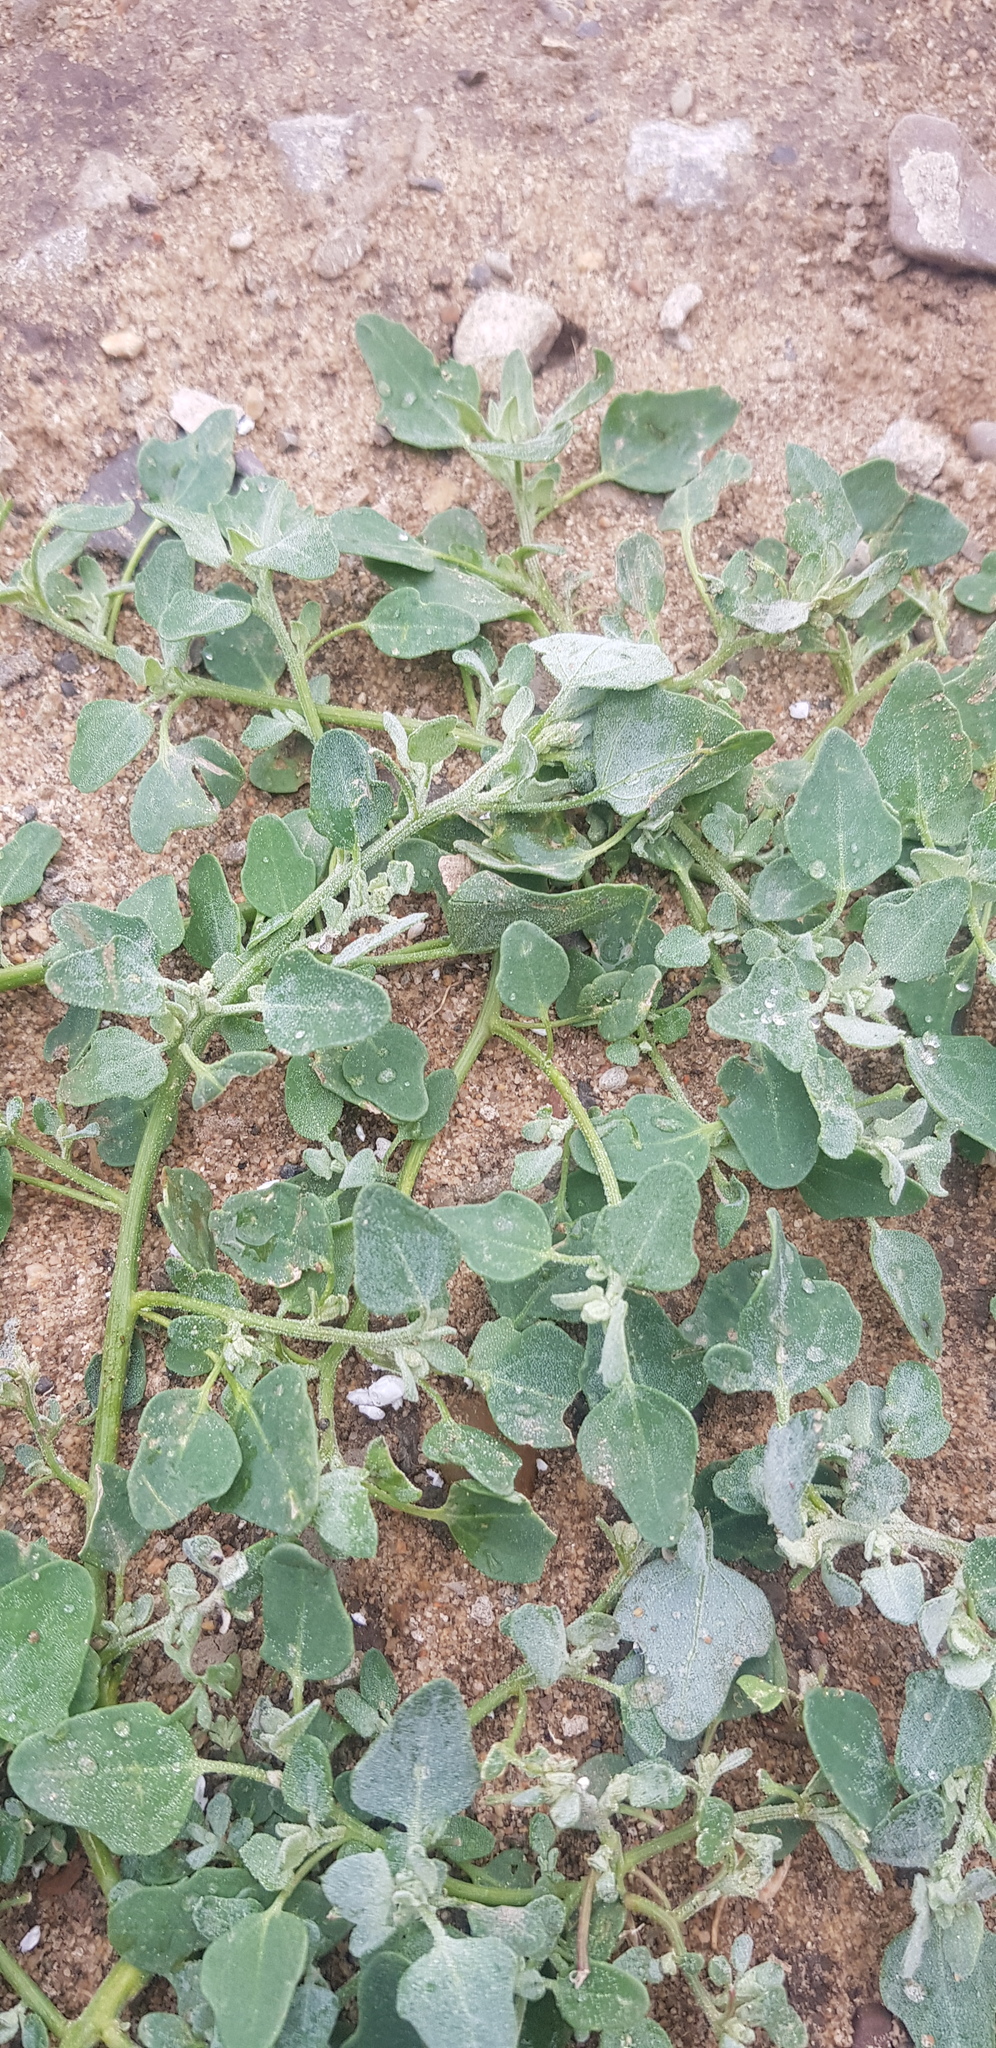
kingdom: Plantae
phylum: Tracheophyta
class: Magnoliopsida
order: Caryophyllales
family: Amaranthaceae
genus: Chenopodium
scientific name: Chenopodium acuminatum
